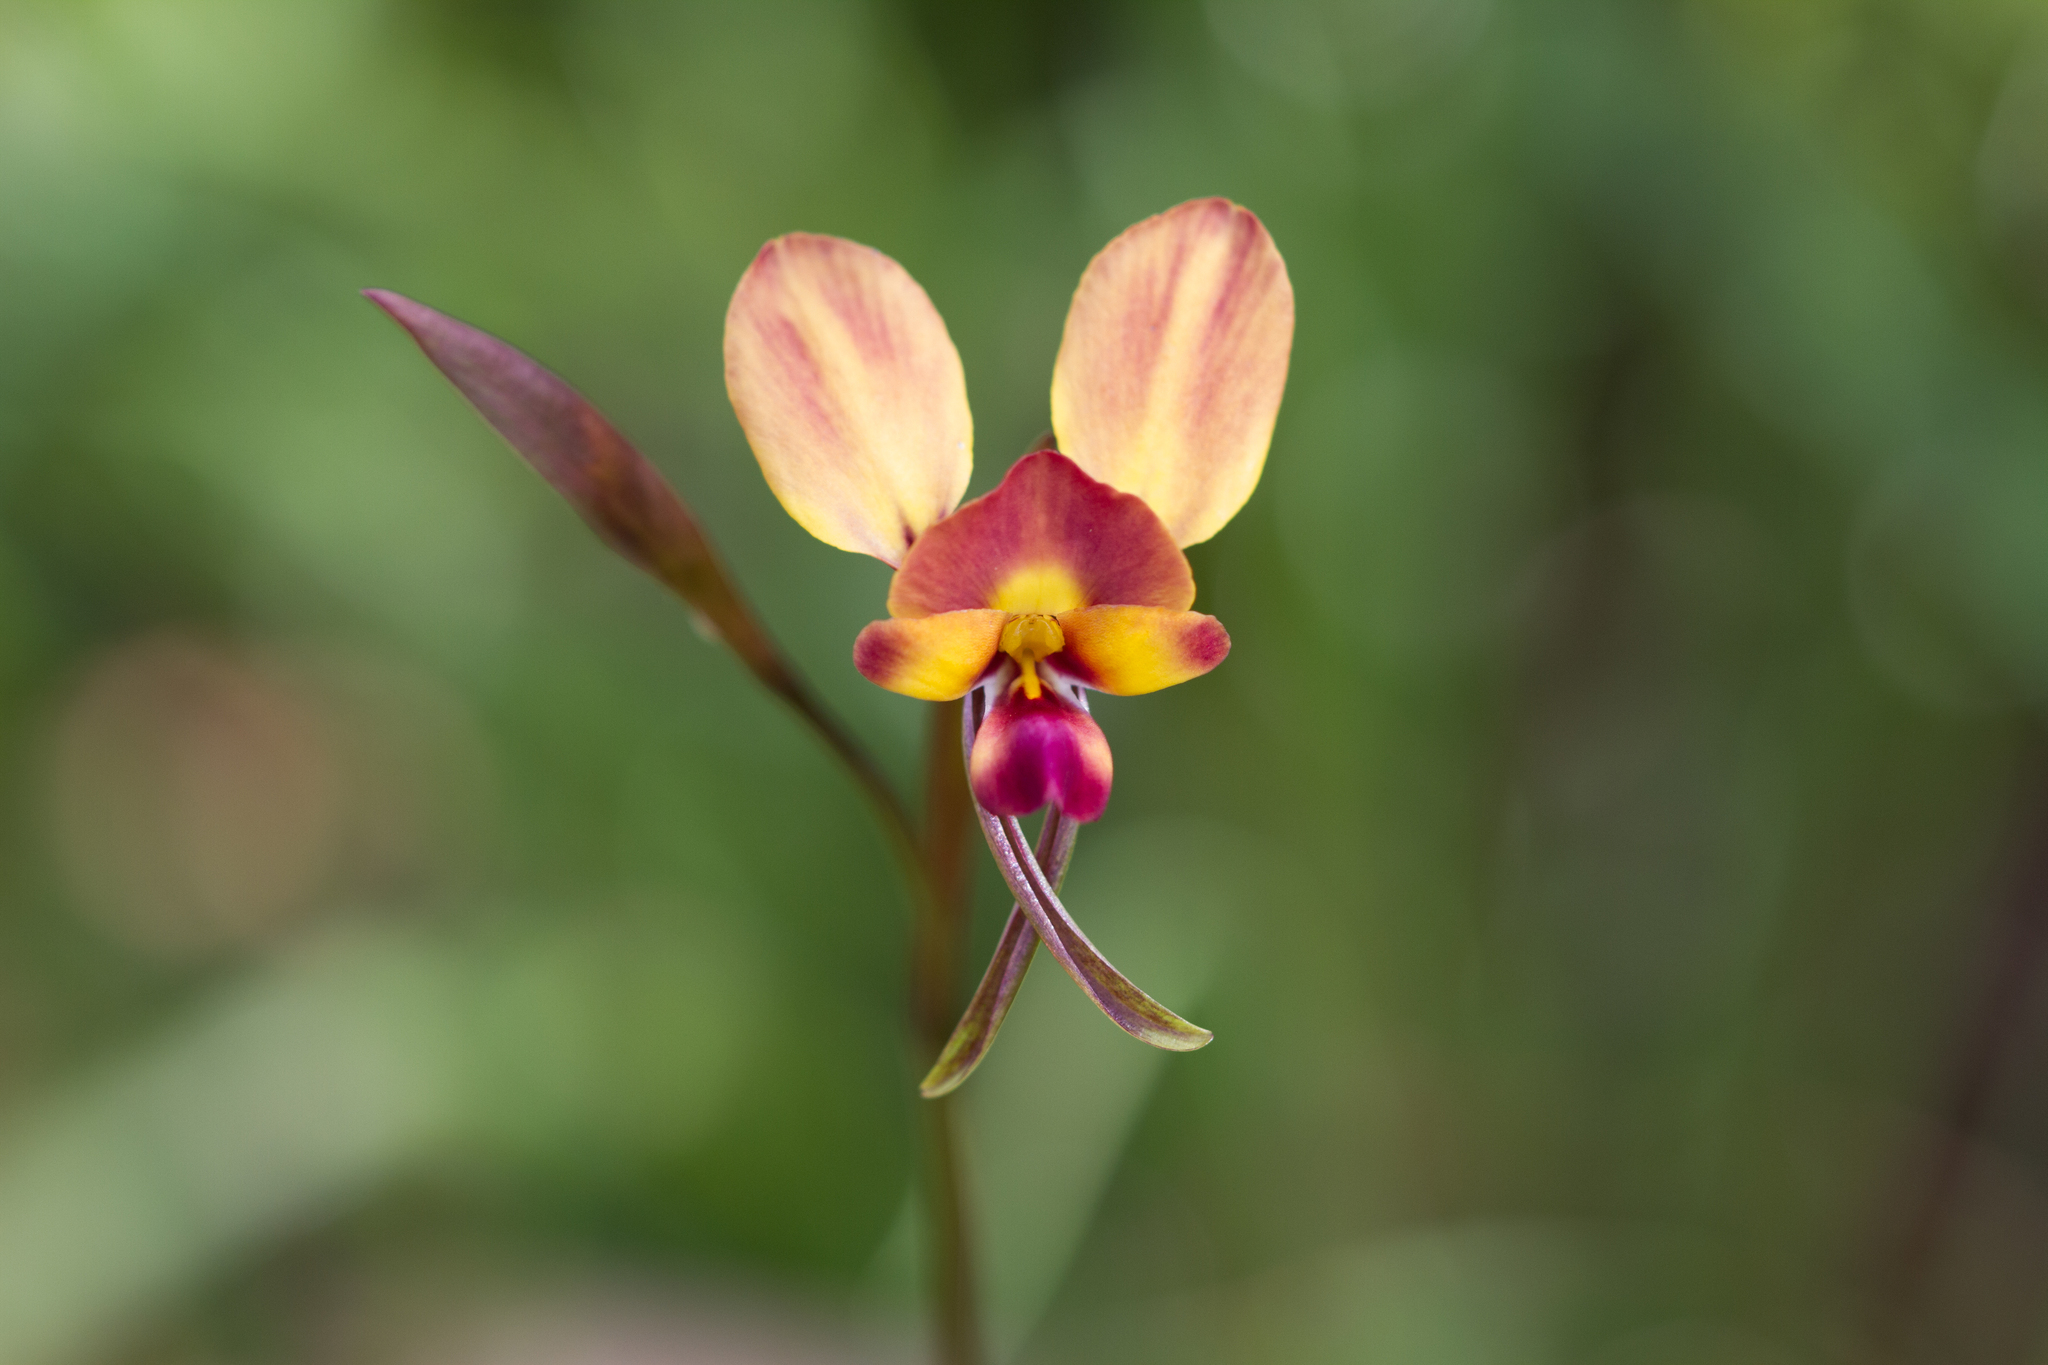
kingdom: Plantae
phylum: Tracheophyta
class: Liliopsida
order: Asparagales
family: Orchidaceae
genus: Diuris
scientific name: Diuris orientis
